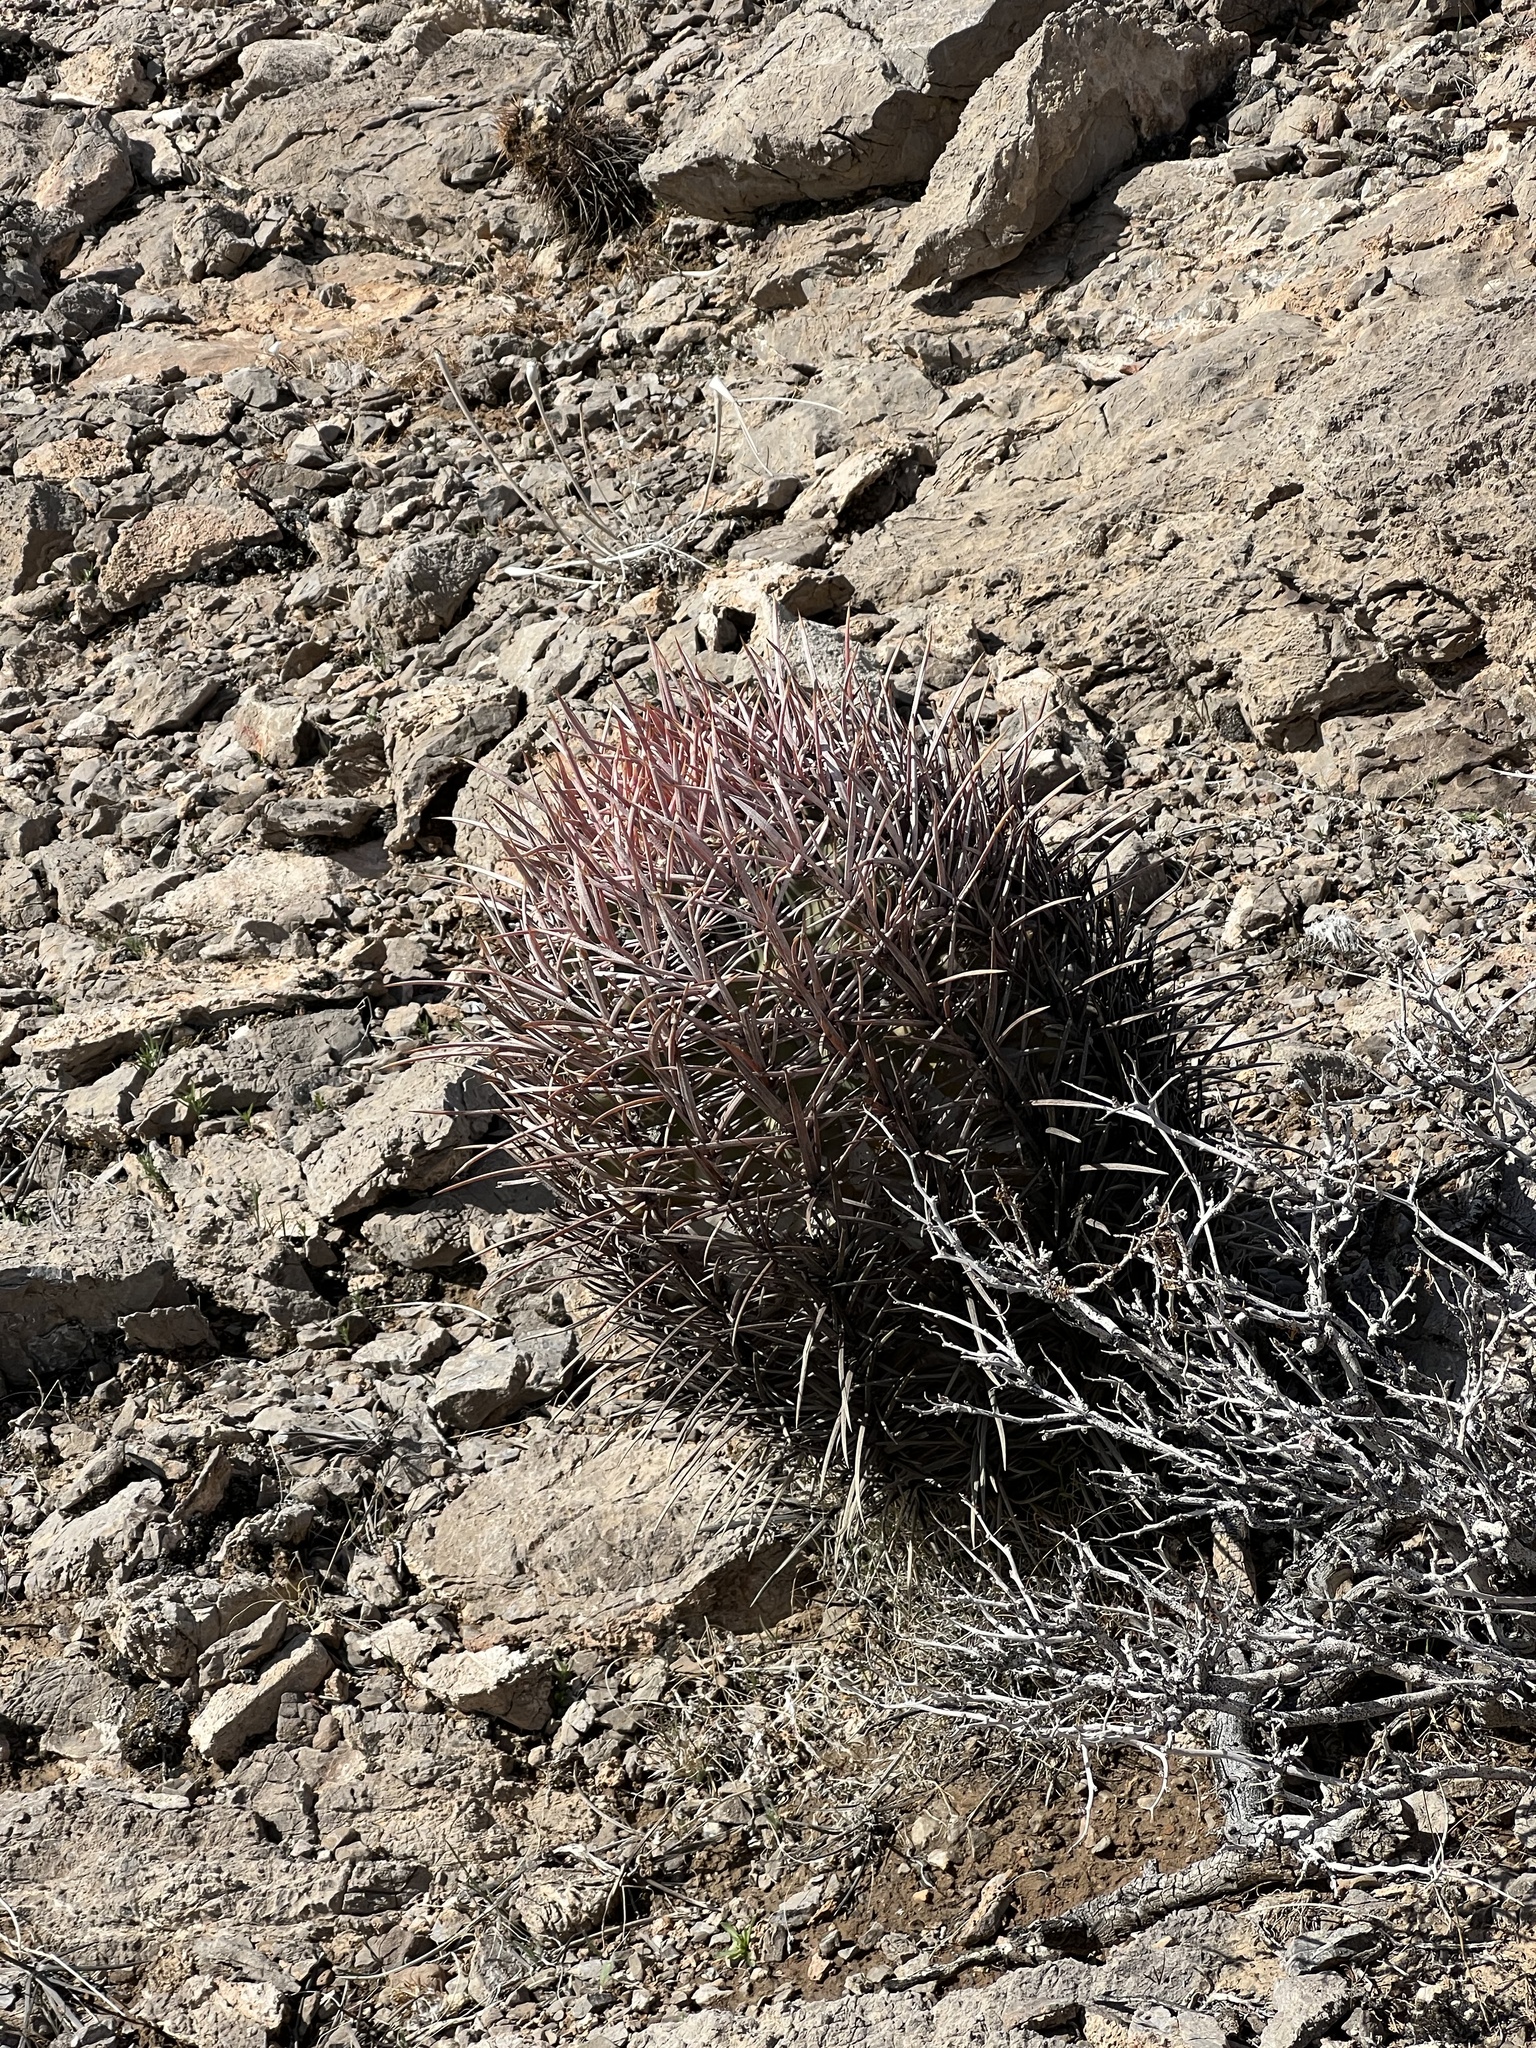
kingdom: Plantae
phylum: Tracheophyta
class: Magnoliopsida
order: Caryophyllales
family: Cactaceae
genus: Echinocactus
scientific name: Echinocactus polycephalus
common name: Cottontop cactus
